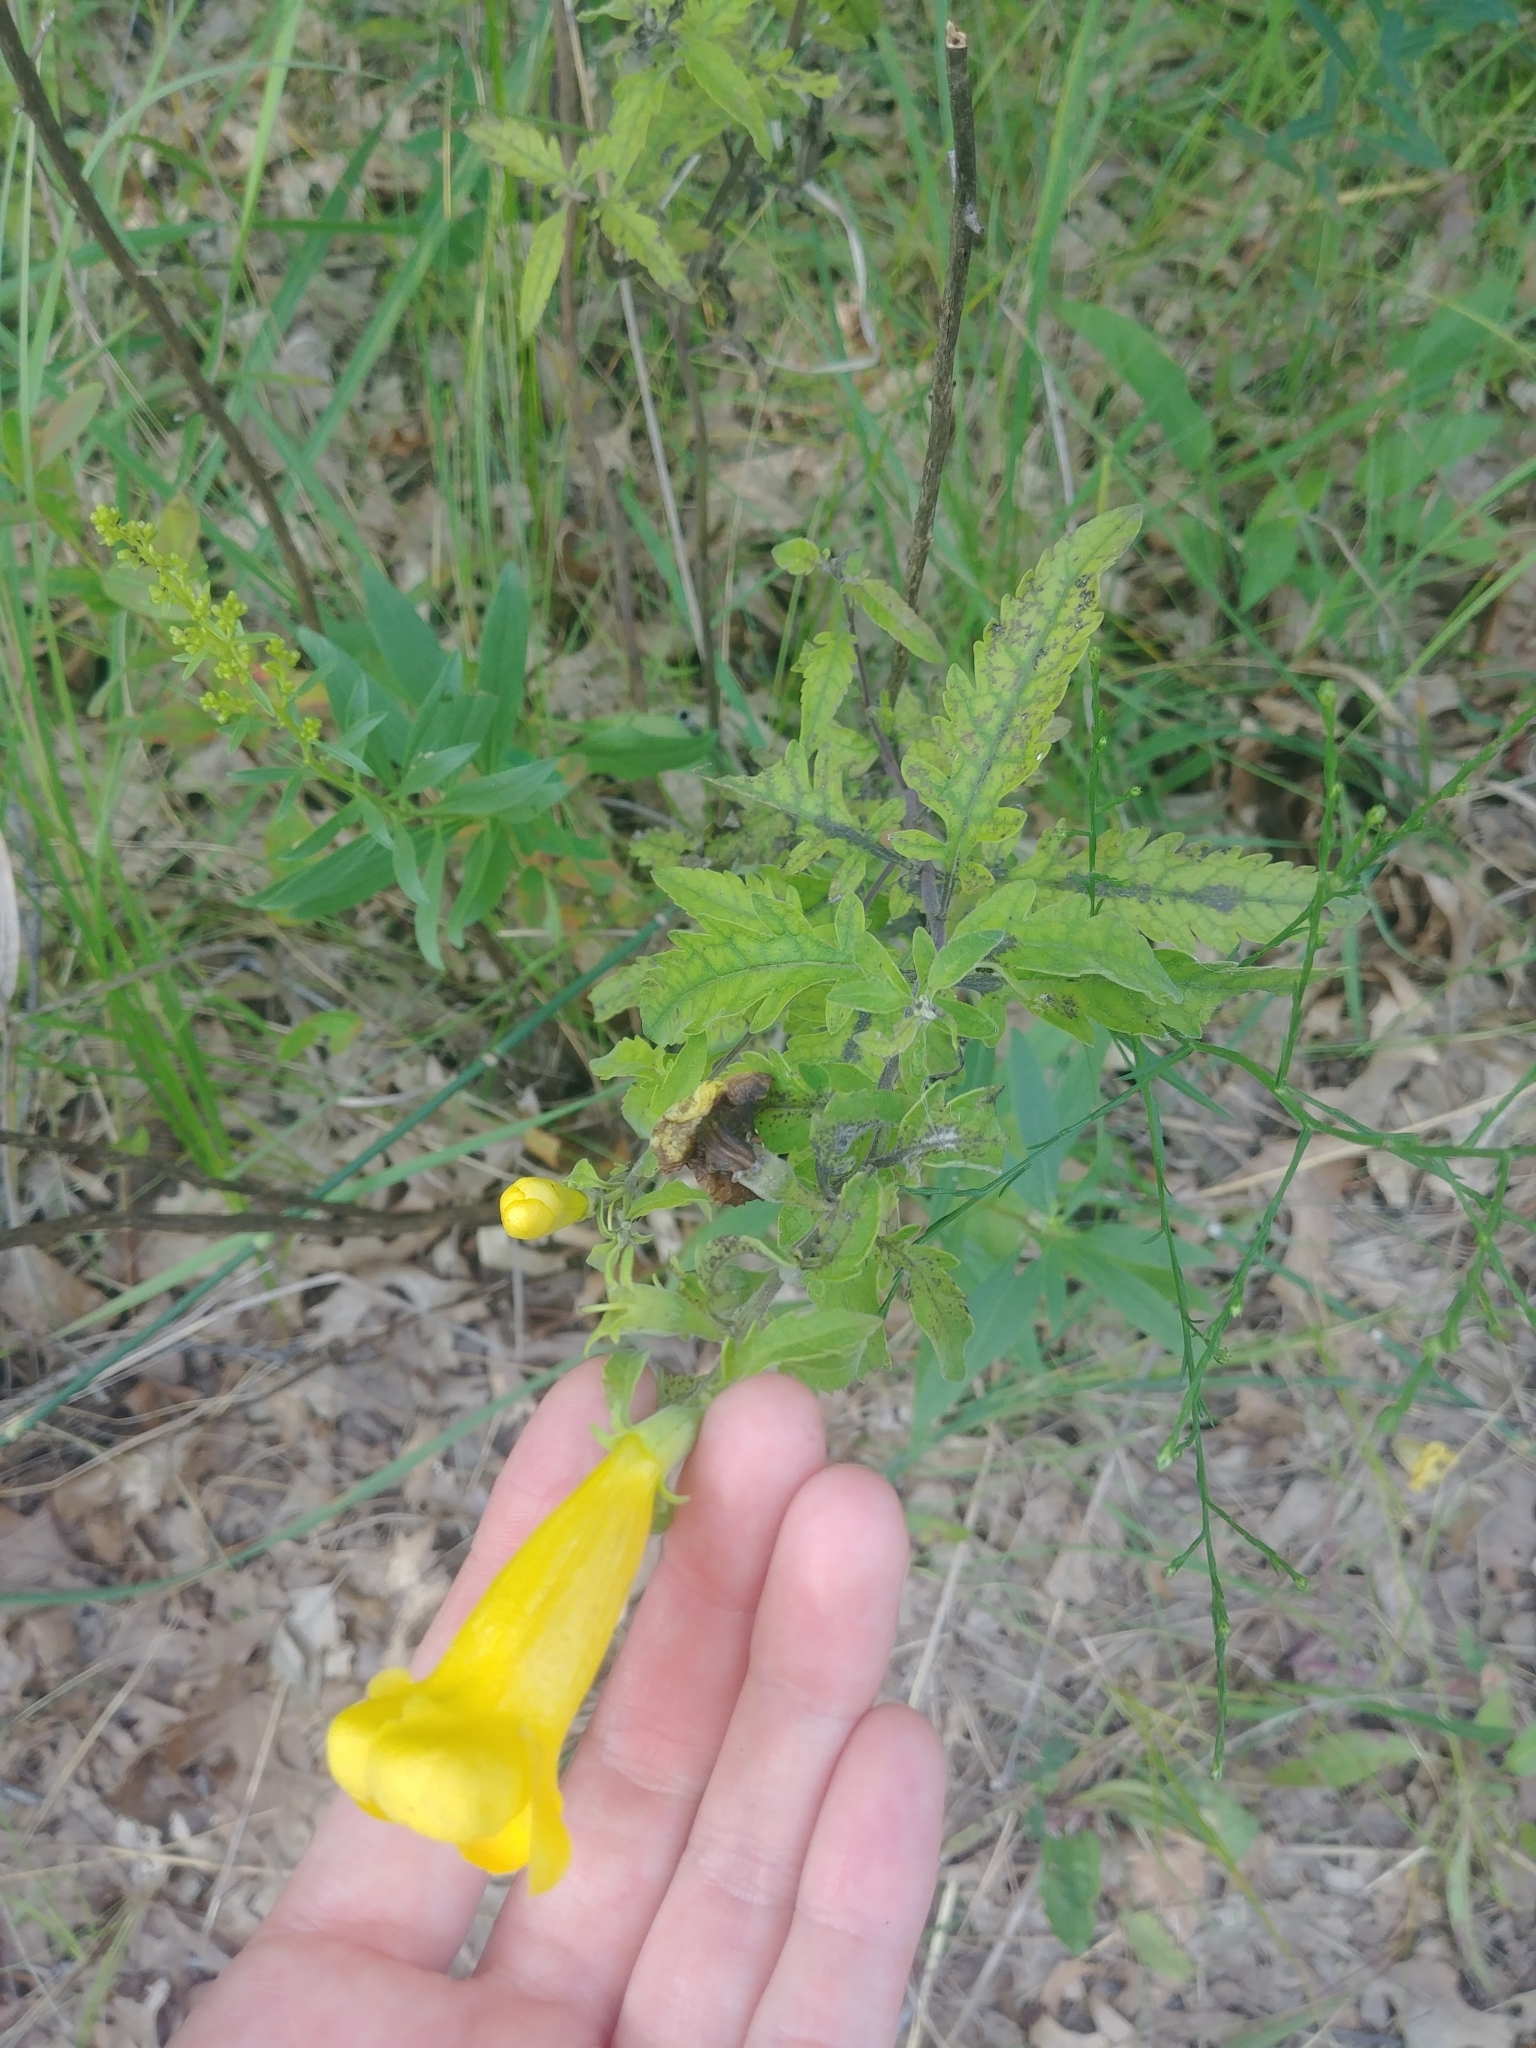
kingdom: Plantae
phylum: Tracheophyta
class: Magnoliopsida
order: Lamiales
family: Orobanchaceae
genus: Aureolaria
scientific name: Aureolaria grandiflora
